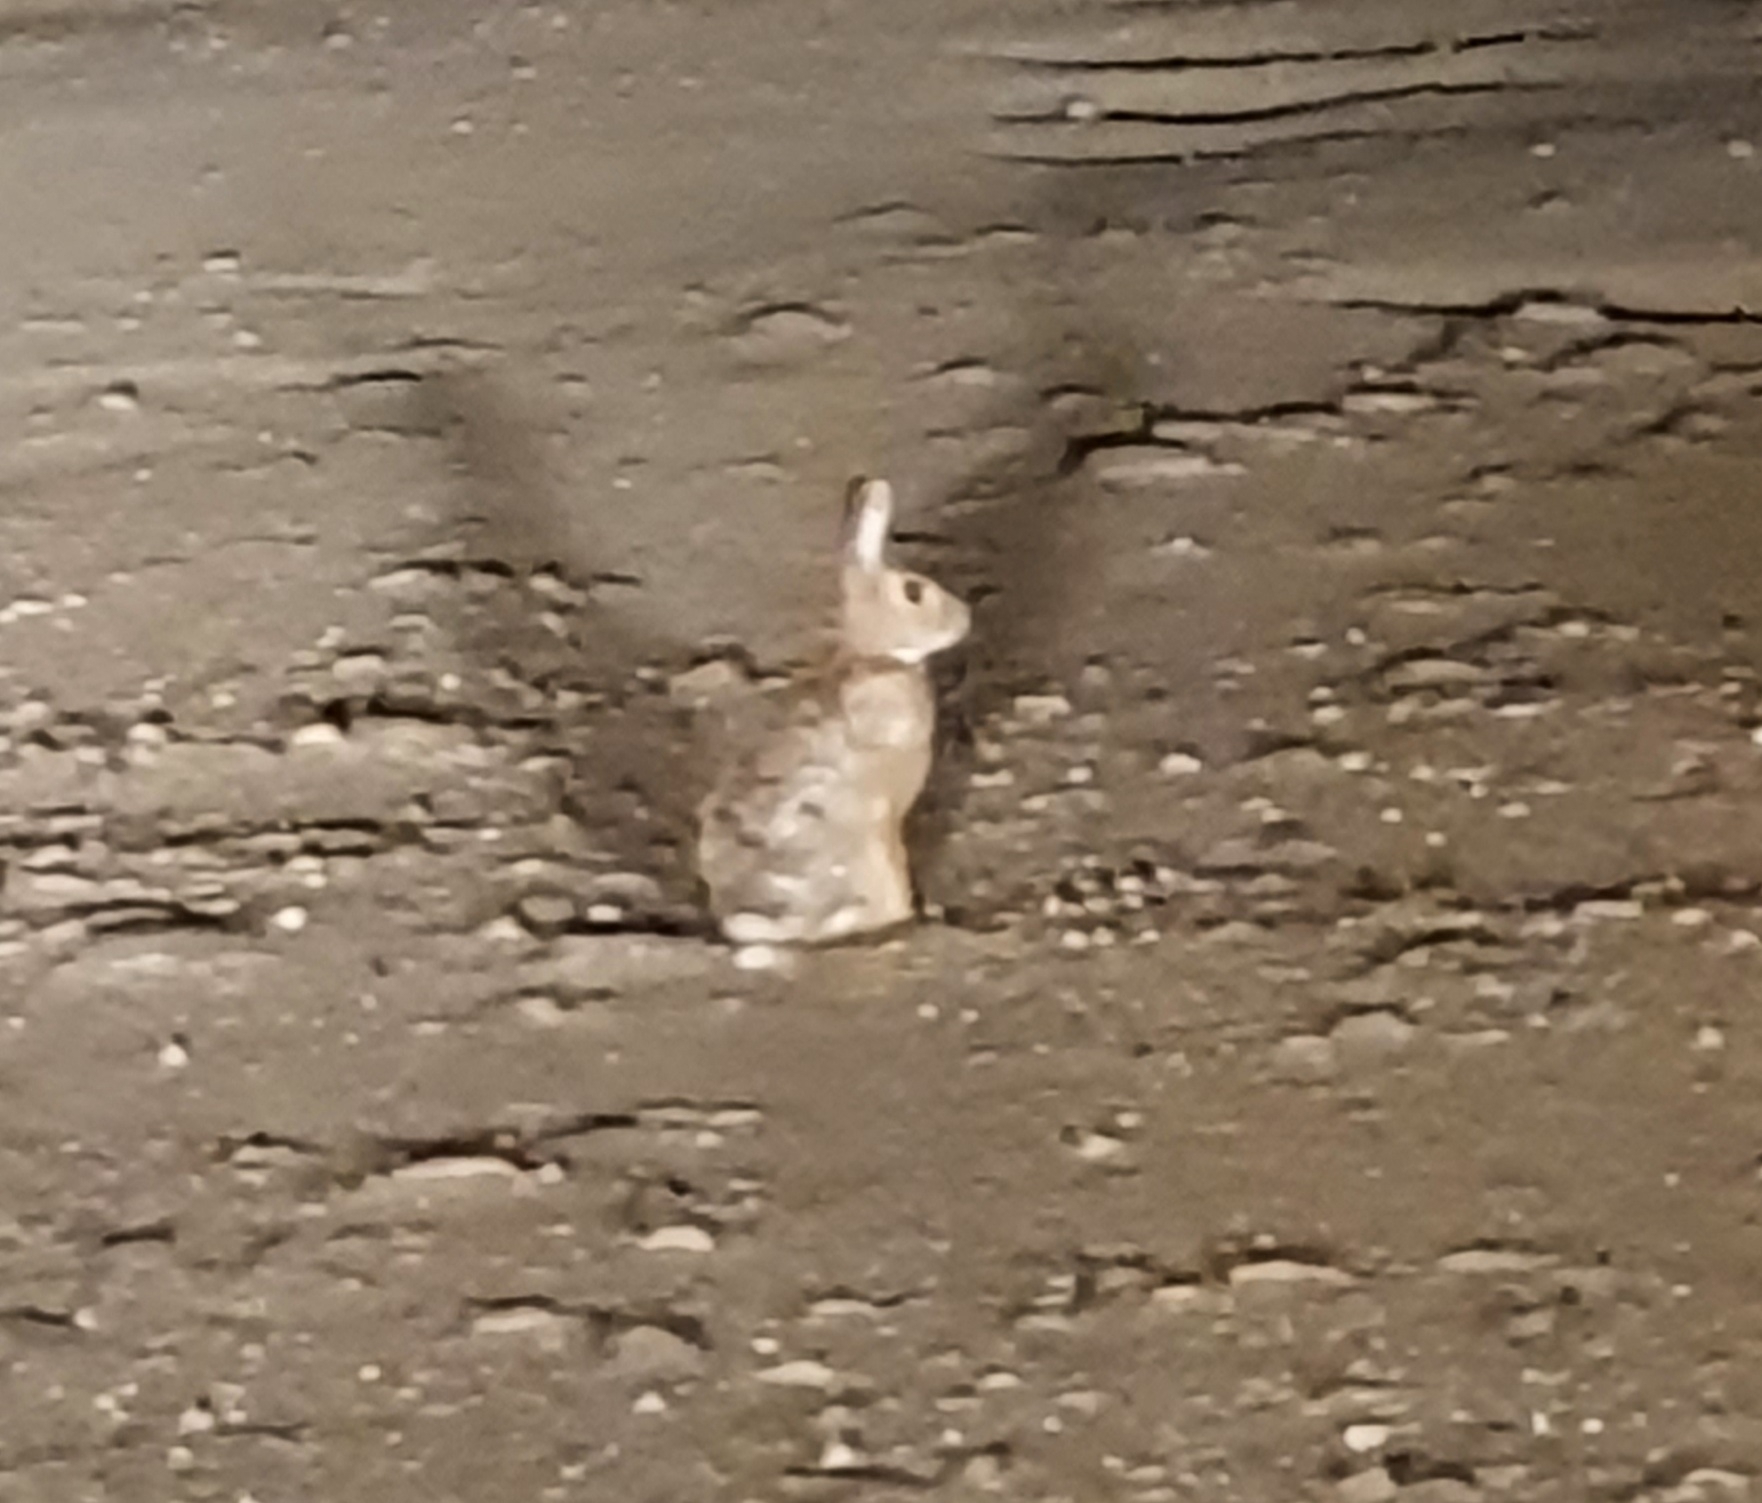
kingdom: Animalia
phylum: Chordata
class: Mammalia
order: Lagomorpha
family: Leporidae
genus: Sylvilagus
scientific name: Sylvilagus audubonii
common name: Desert cottontail
